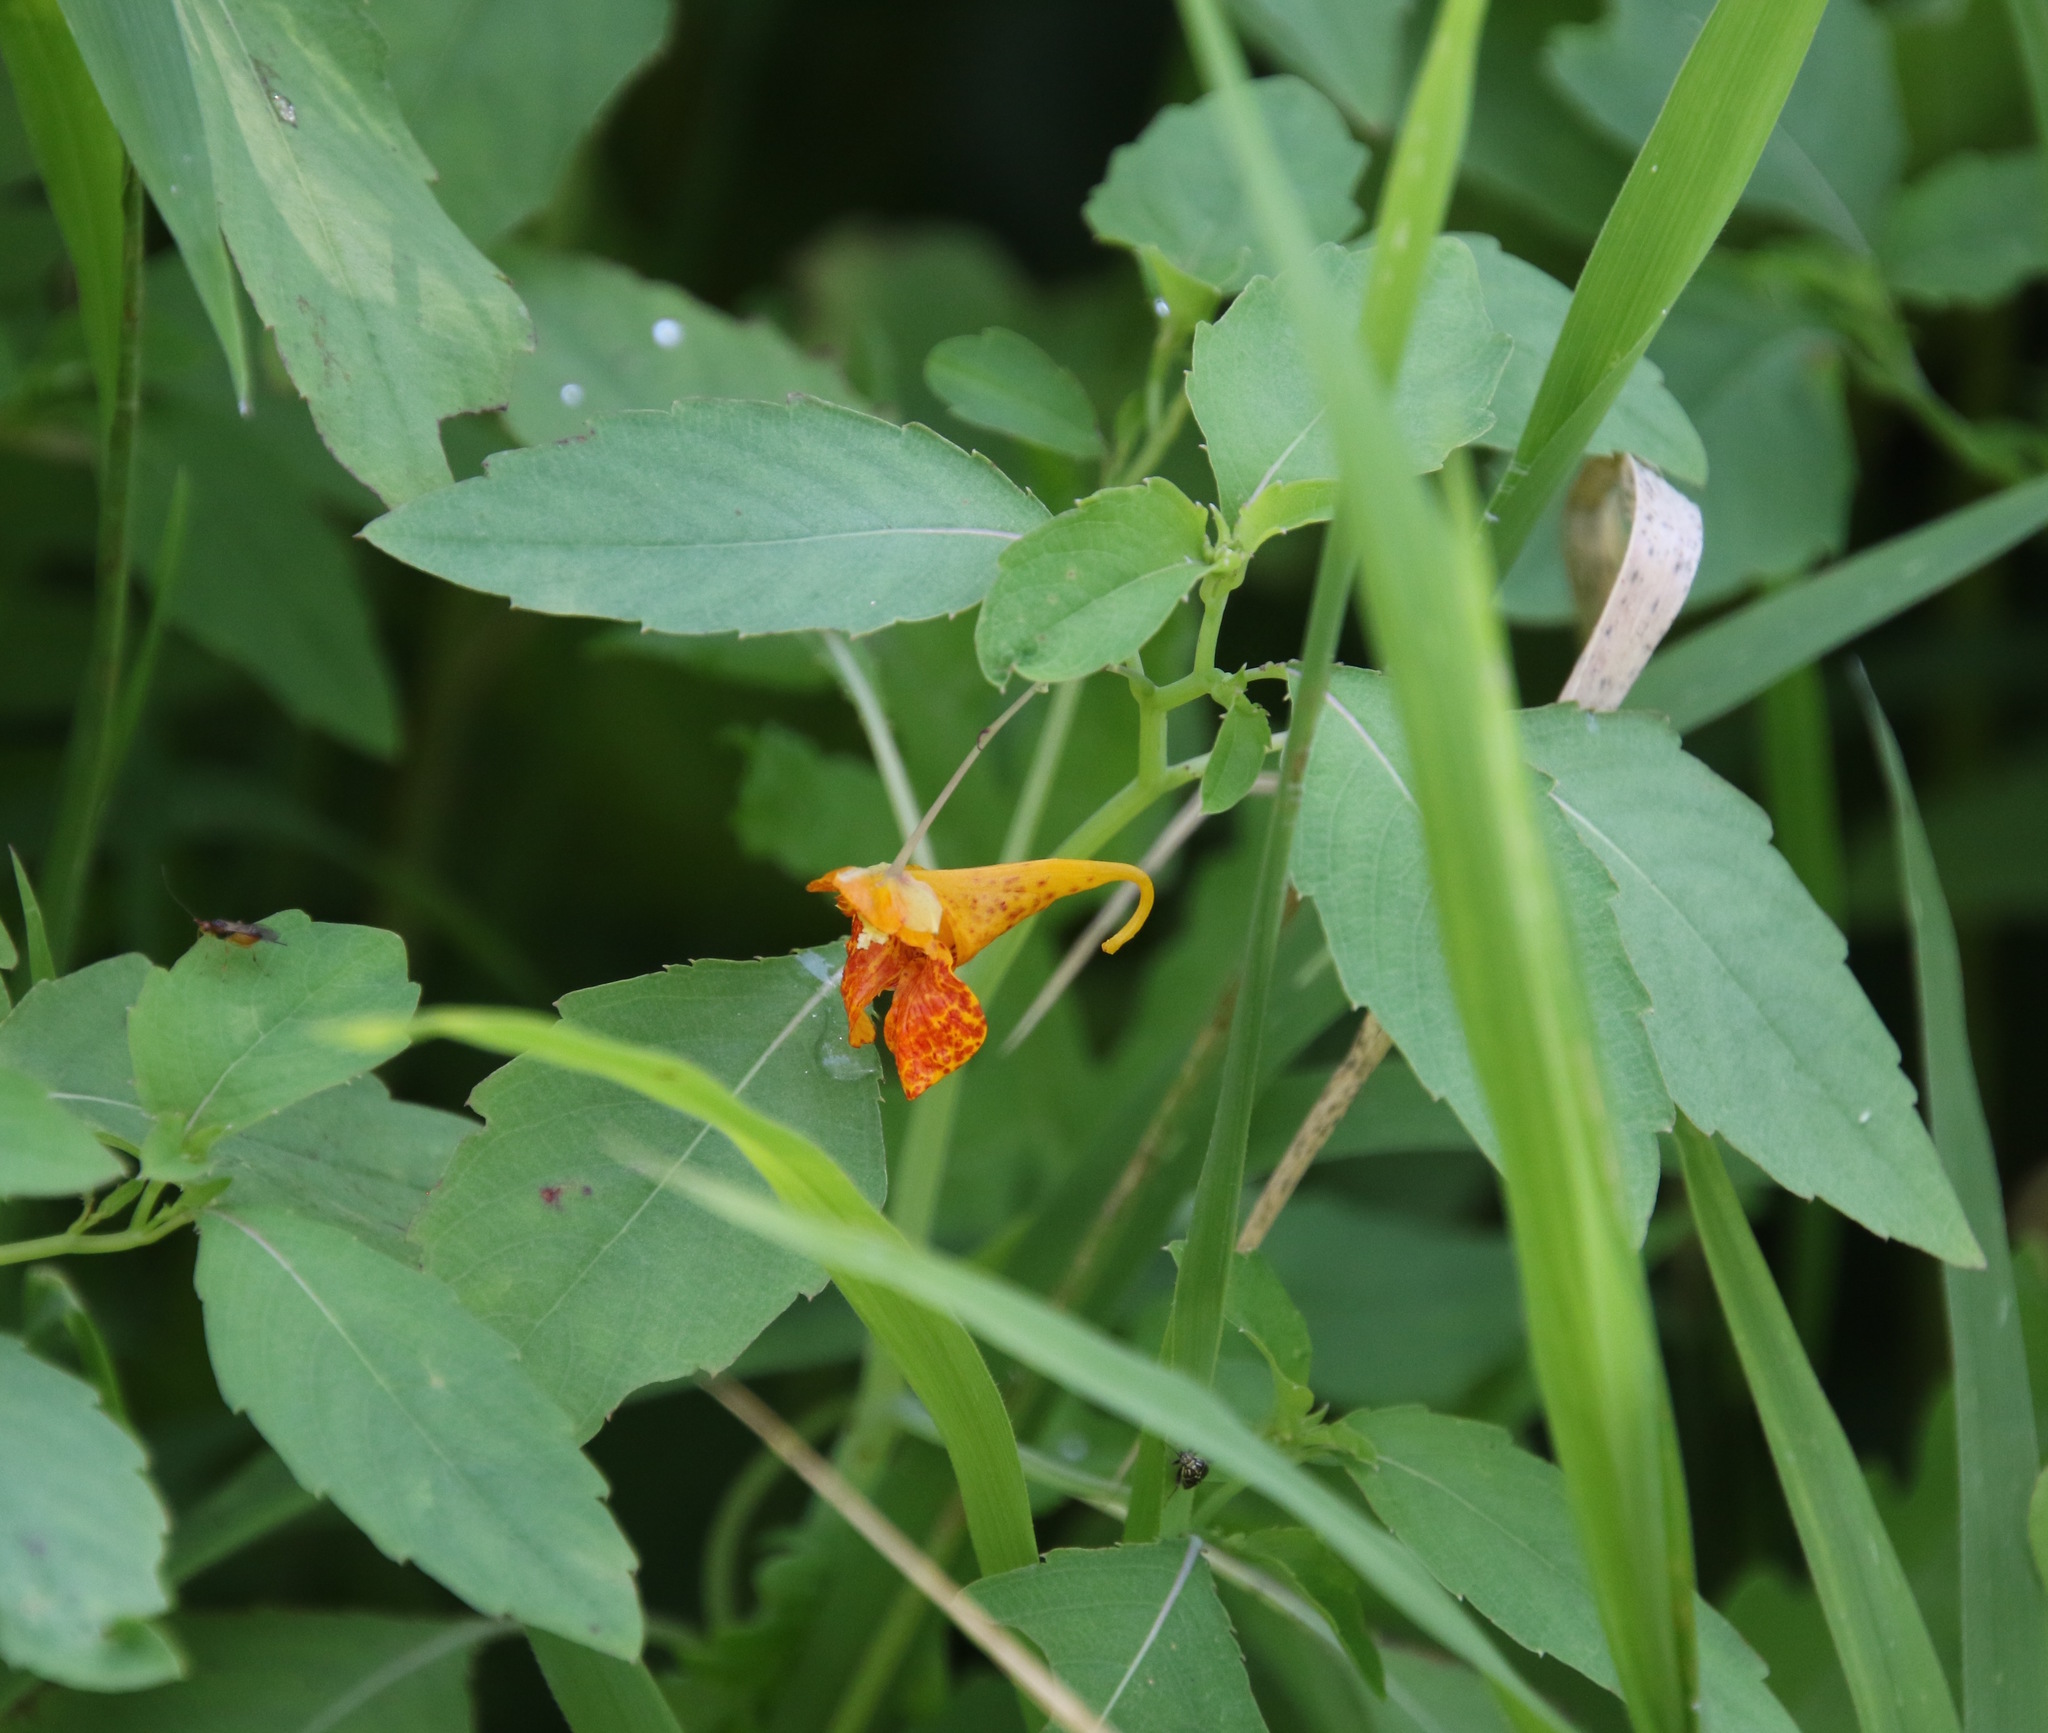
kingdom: Plantae
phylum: Tracheophyta
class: Magnoliopsida
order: Ericales
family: Balsaminaceae
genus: Impatiens
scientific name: Impatiens capensis
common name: Orange balsam
